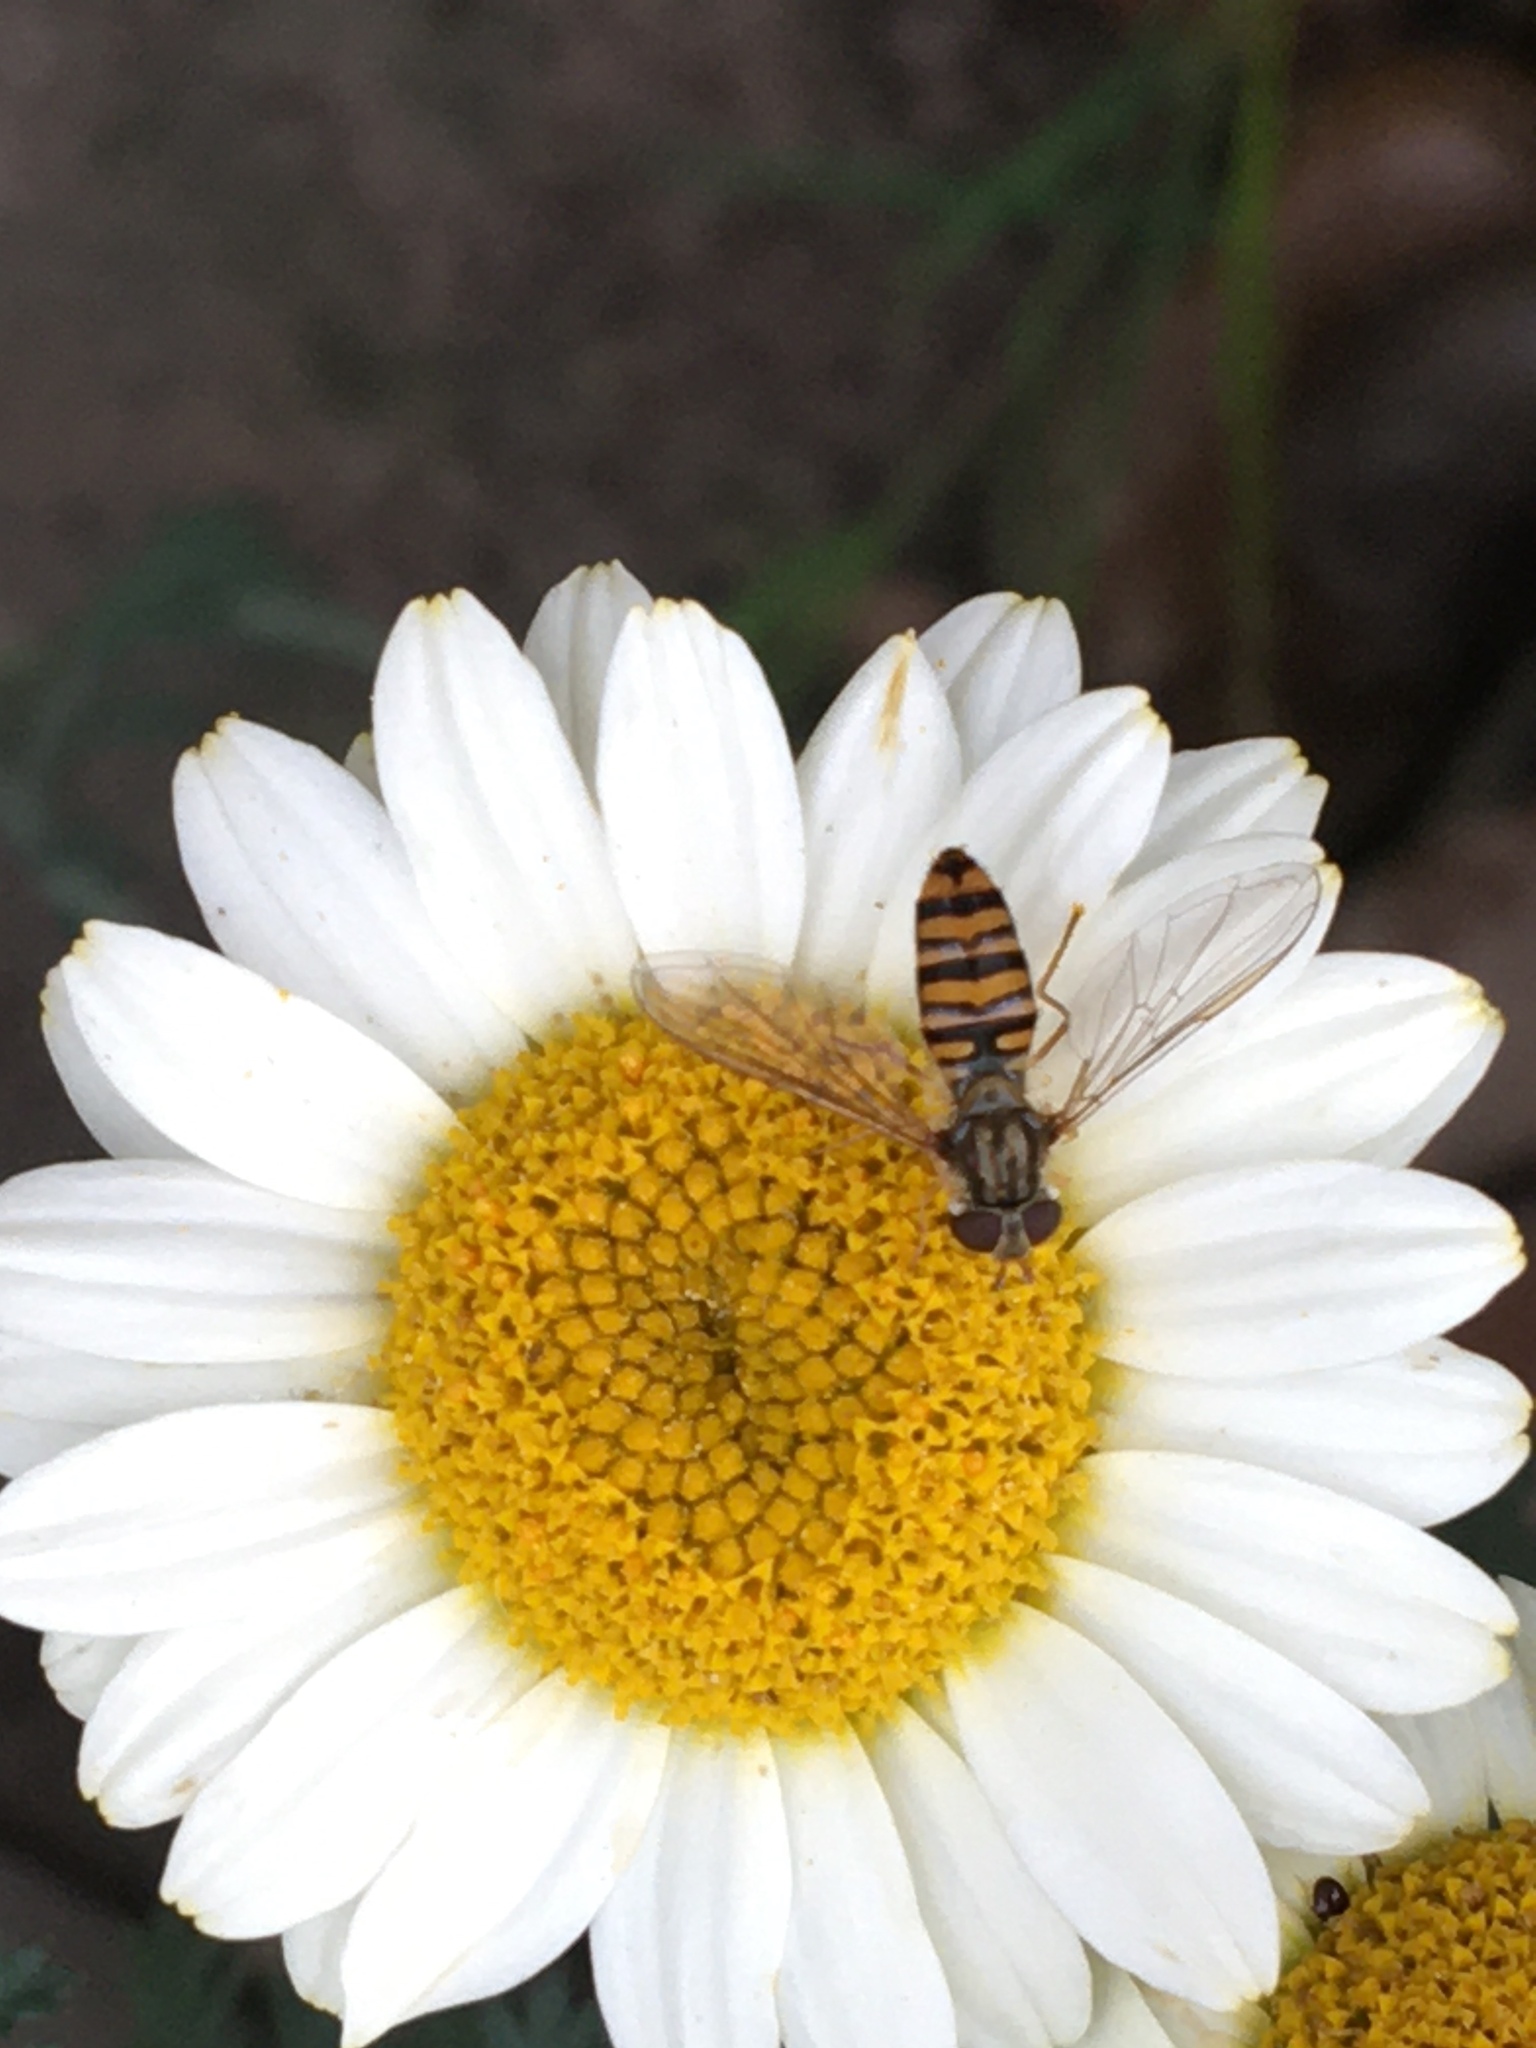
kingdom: Animalia
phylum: Arthropoda
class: Insecta
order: Diptera
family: Syrphidae
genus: Episyrphus
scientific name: Episyrphus balteatus
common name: Marmalade hoverfly
